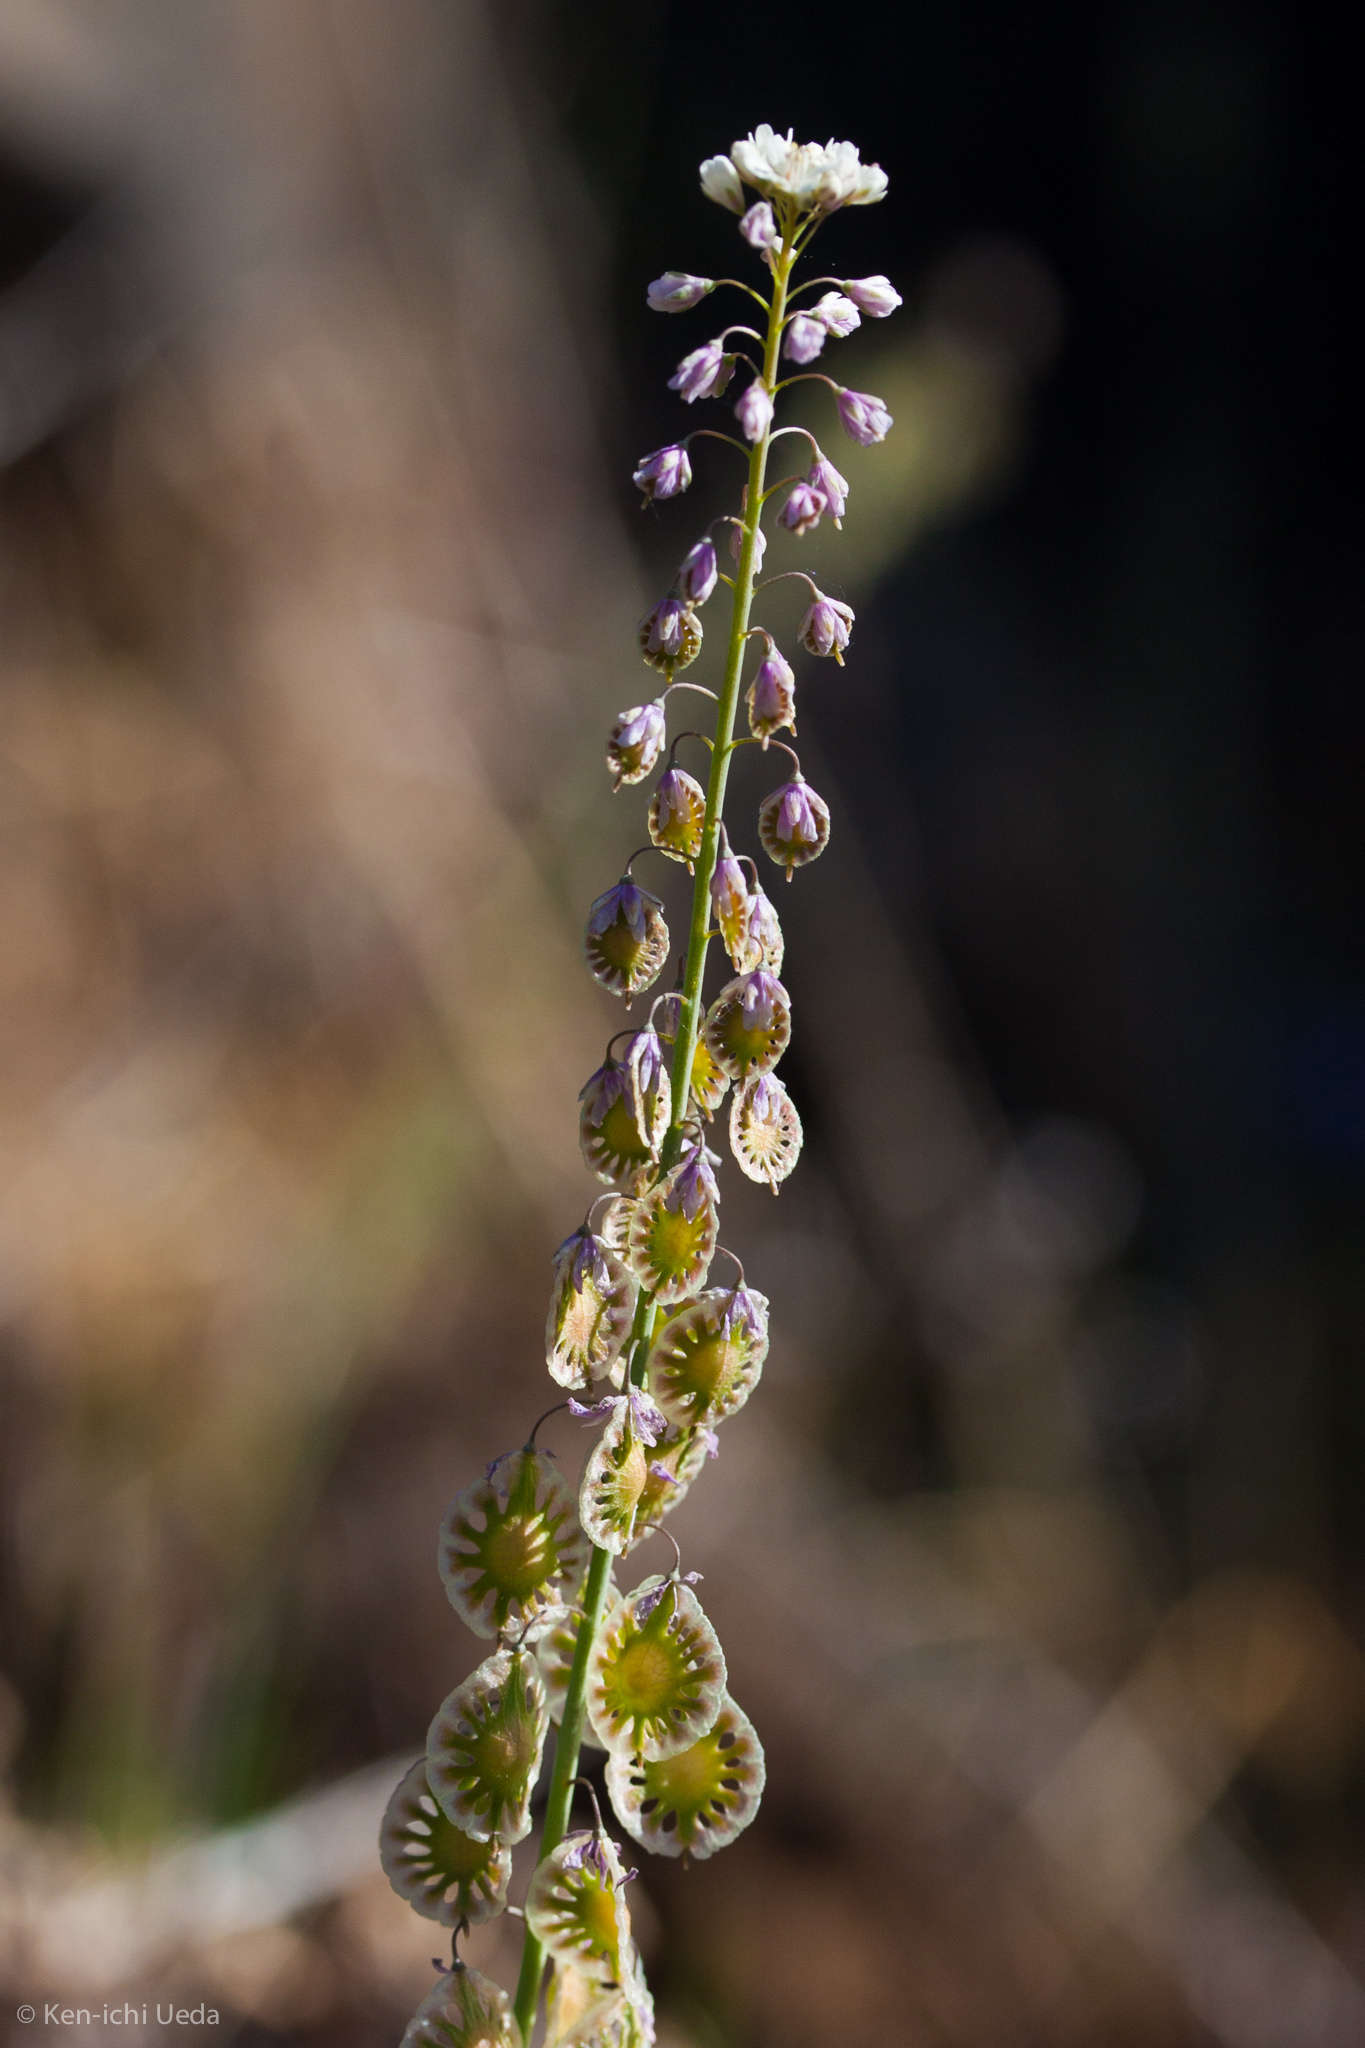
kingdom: Plantae
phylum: Tracheophyta
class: Magnoliopsida
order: Brassicales
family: Brassicaceae
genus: Thysanocarpus
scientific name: Thysanocarpus curvipes
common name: Sand fringepod
